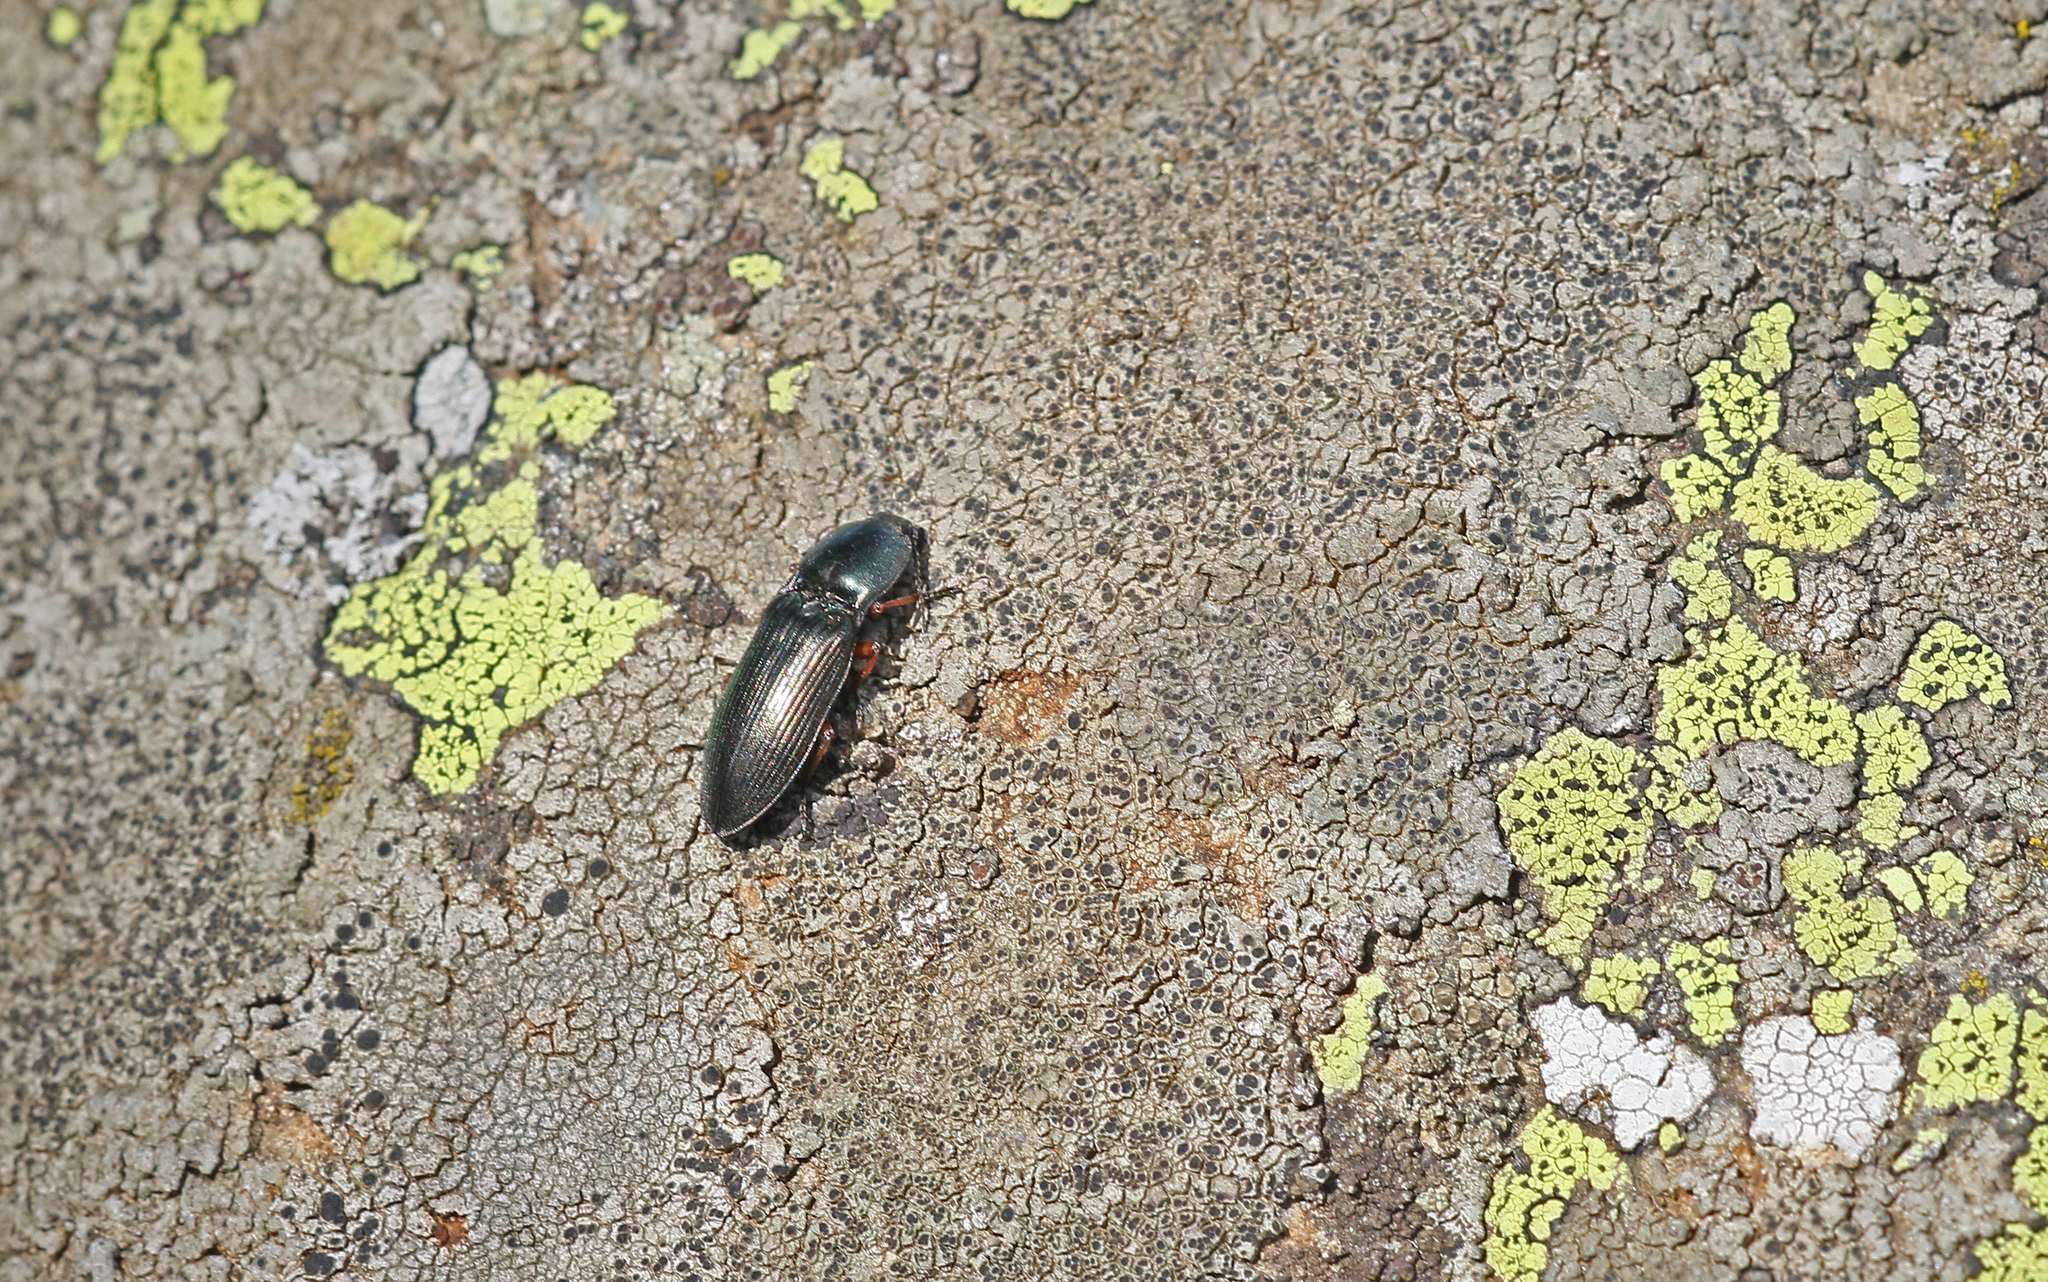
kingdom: Animalia
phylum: Arthropoda
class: Insecta
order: Coleoptera
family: Elateridae
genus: Selatosomus
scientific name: Selatosomus aeneus
